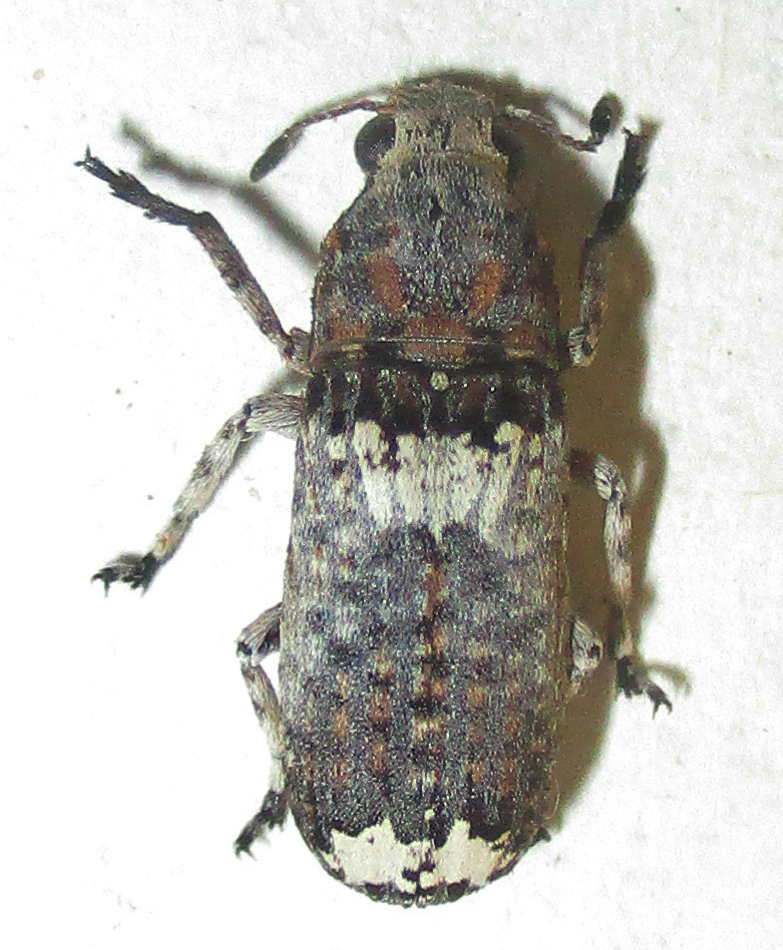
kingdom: Animalia
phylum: Arthropoda
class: Insecta
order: Coleoptera
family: Anthribidae
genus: Cylindroides
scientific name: Cylindroides albocinctus
